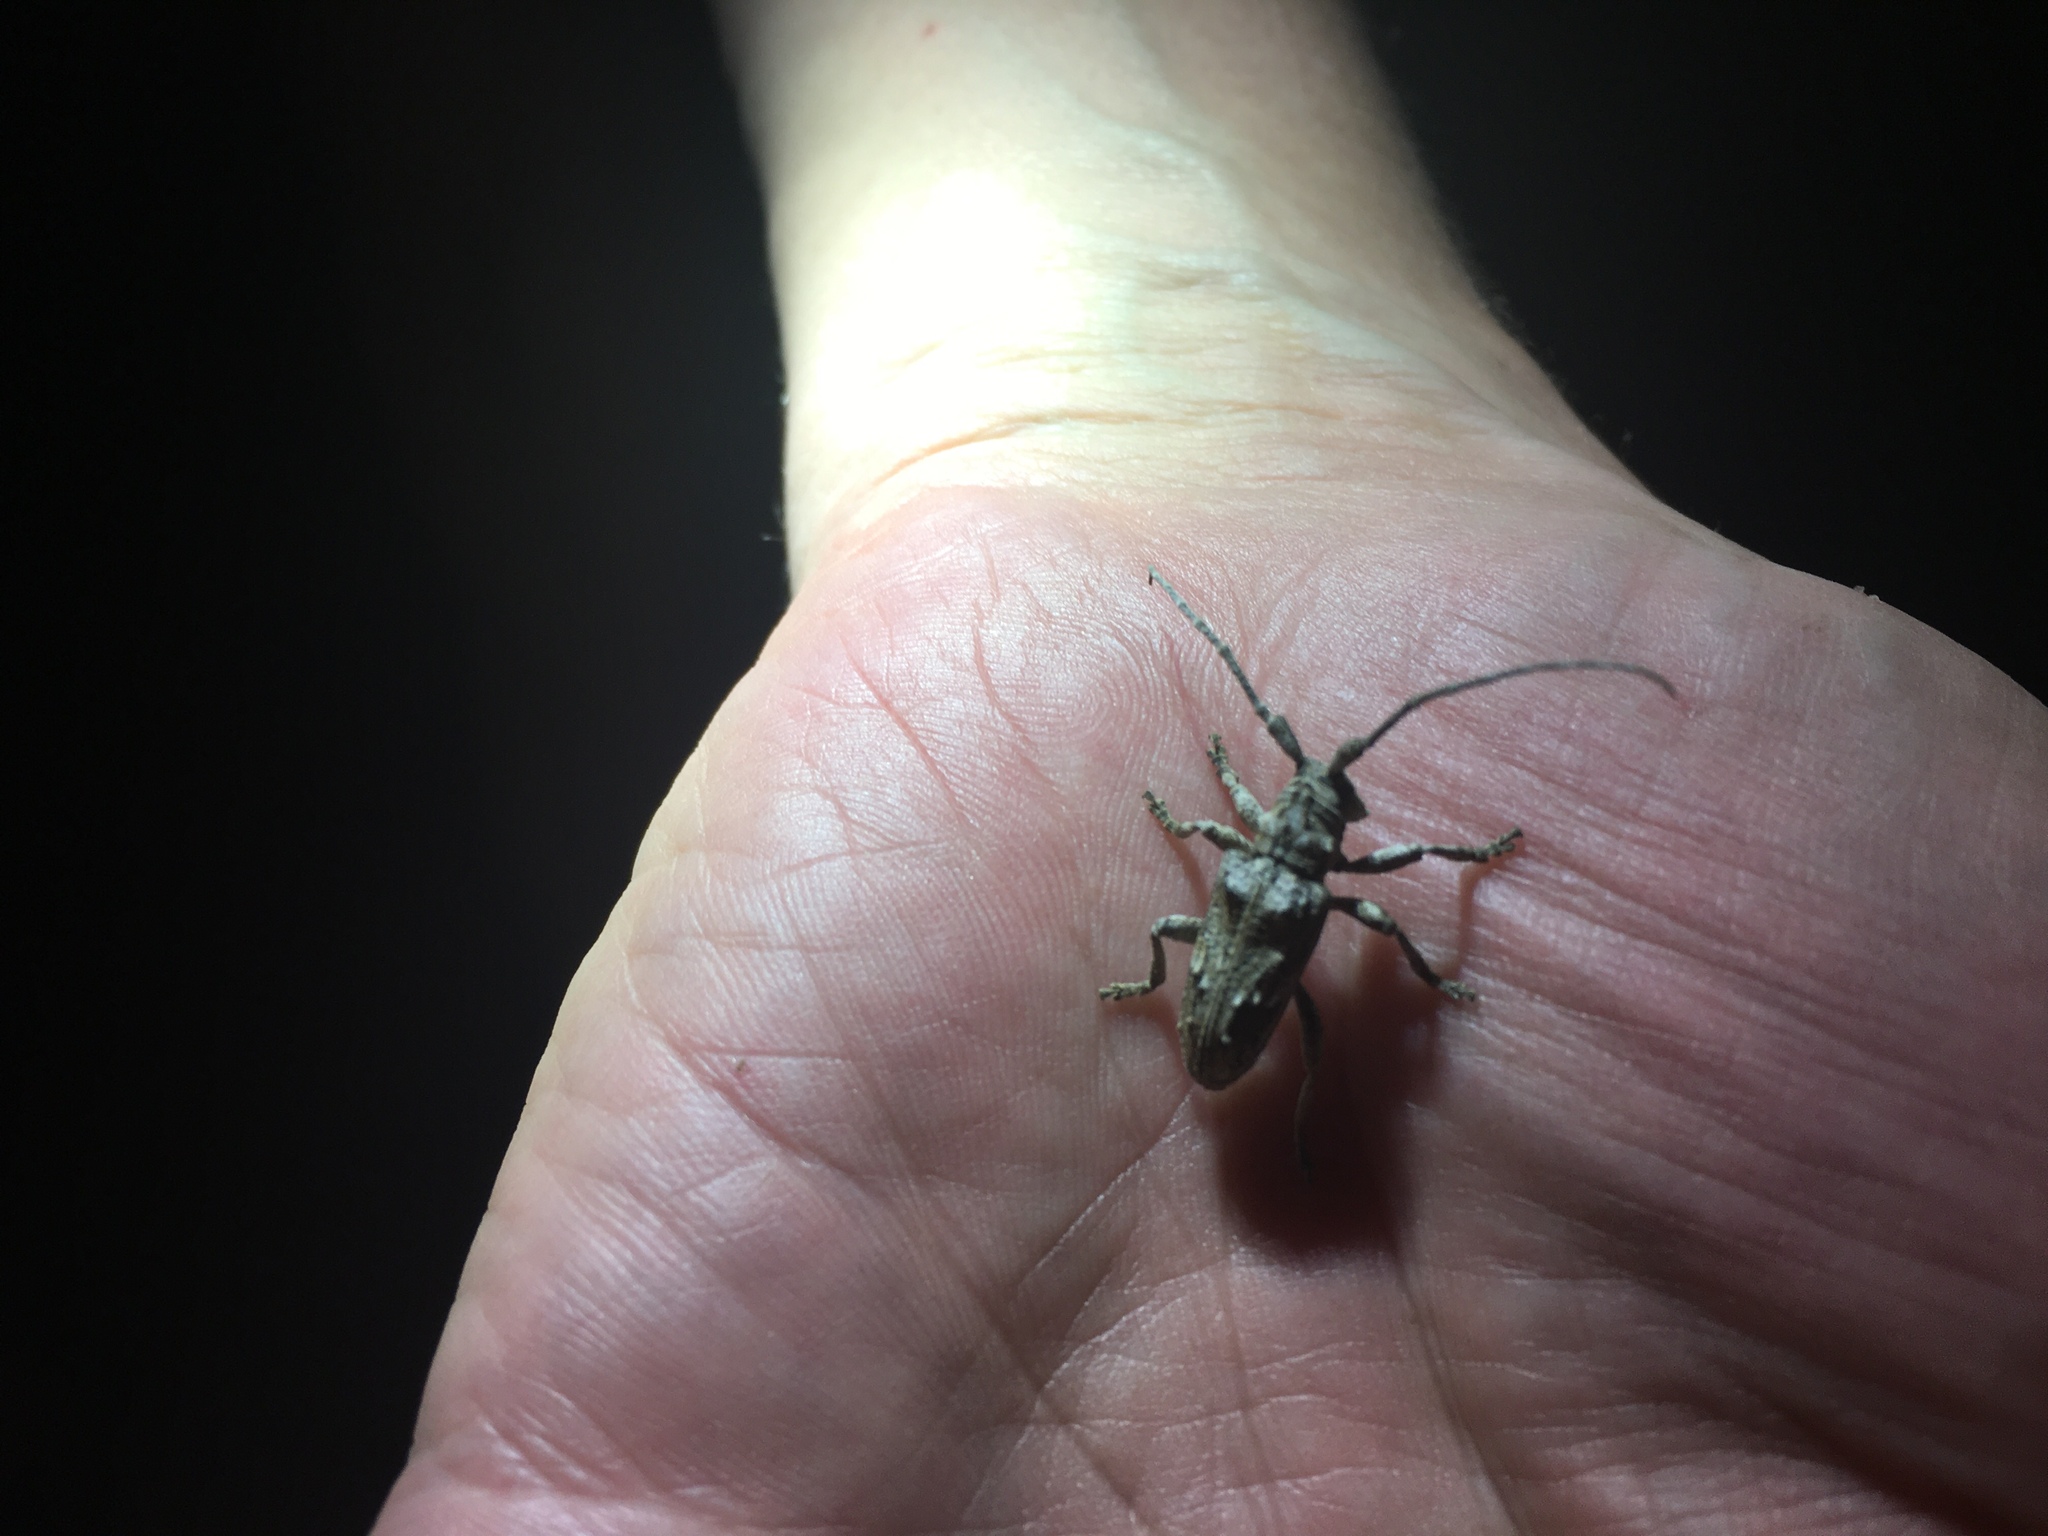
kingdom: Animalia
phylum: Arthropoda
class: Insecta
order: Coleoptera
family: Cerambycidae
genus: Idactus
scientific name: Idactus strandi
